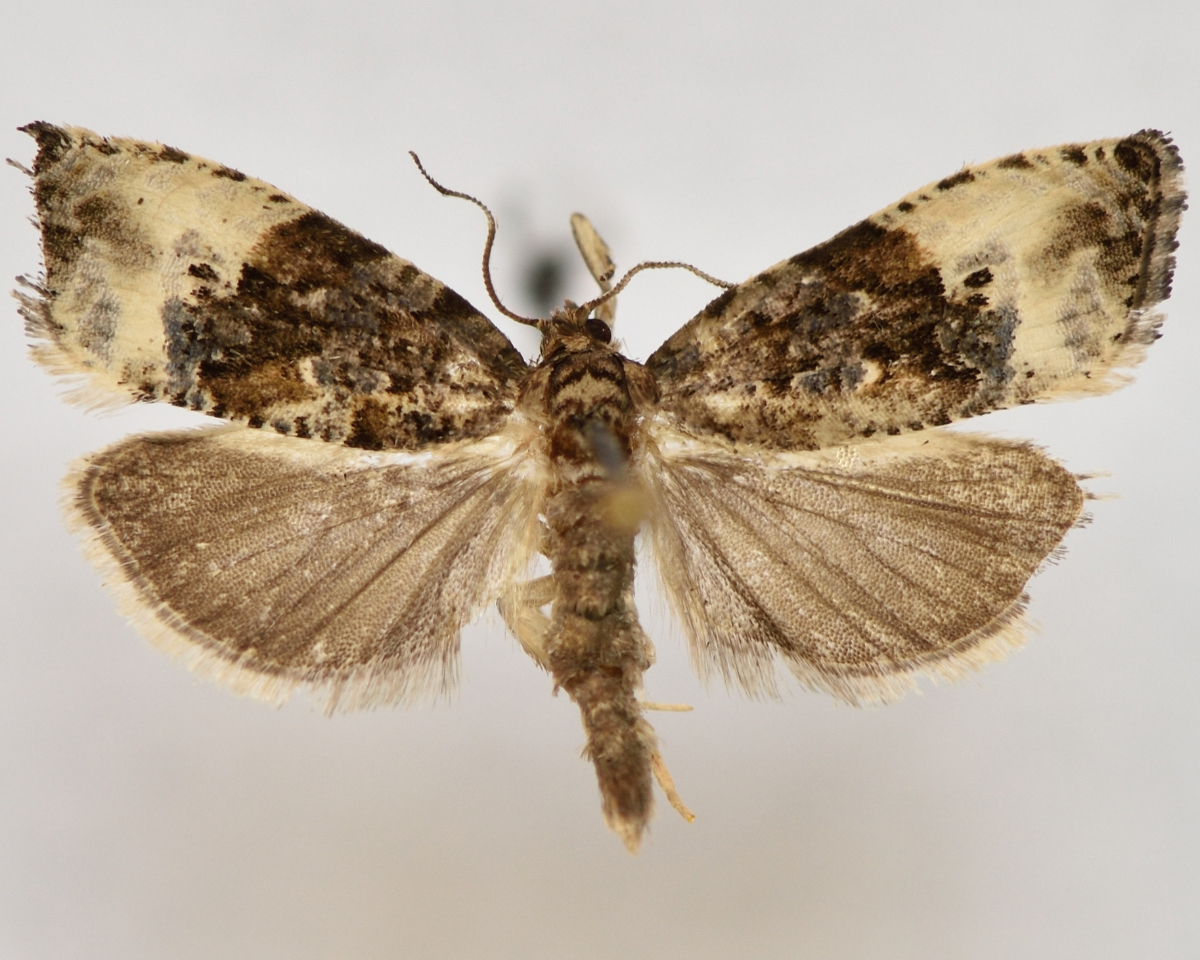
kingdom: Animalia
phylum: Arthropoda
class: Insecta
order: Lepidoptera
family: Tortricidae
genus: Hedya
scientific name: Hedya nubiferana
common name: Marbled orchard tortrix
